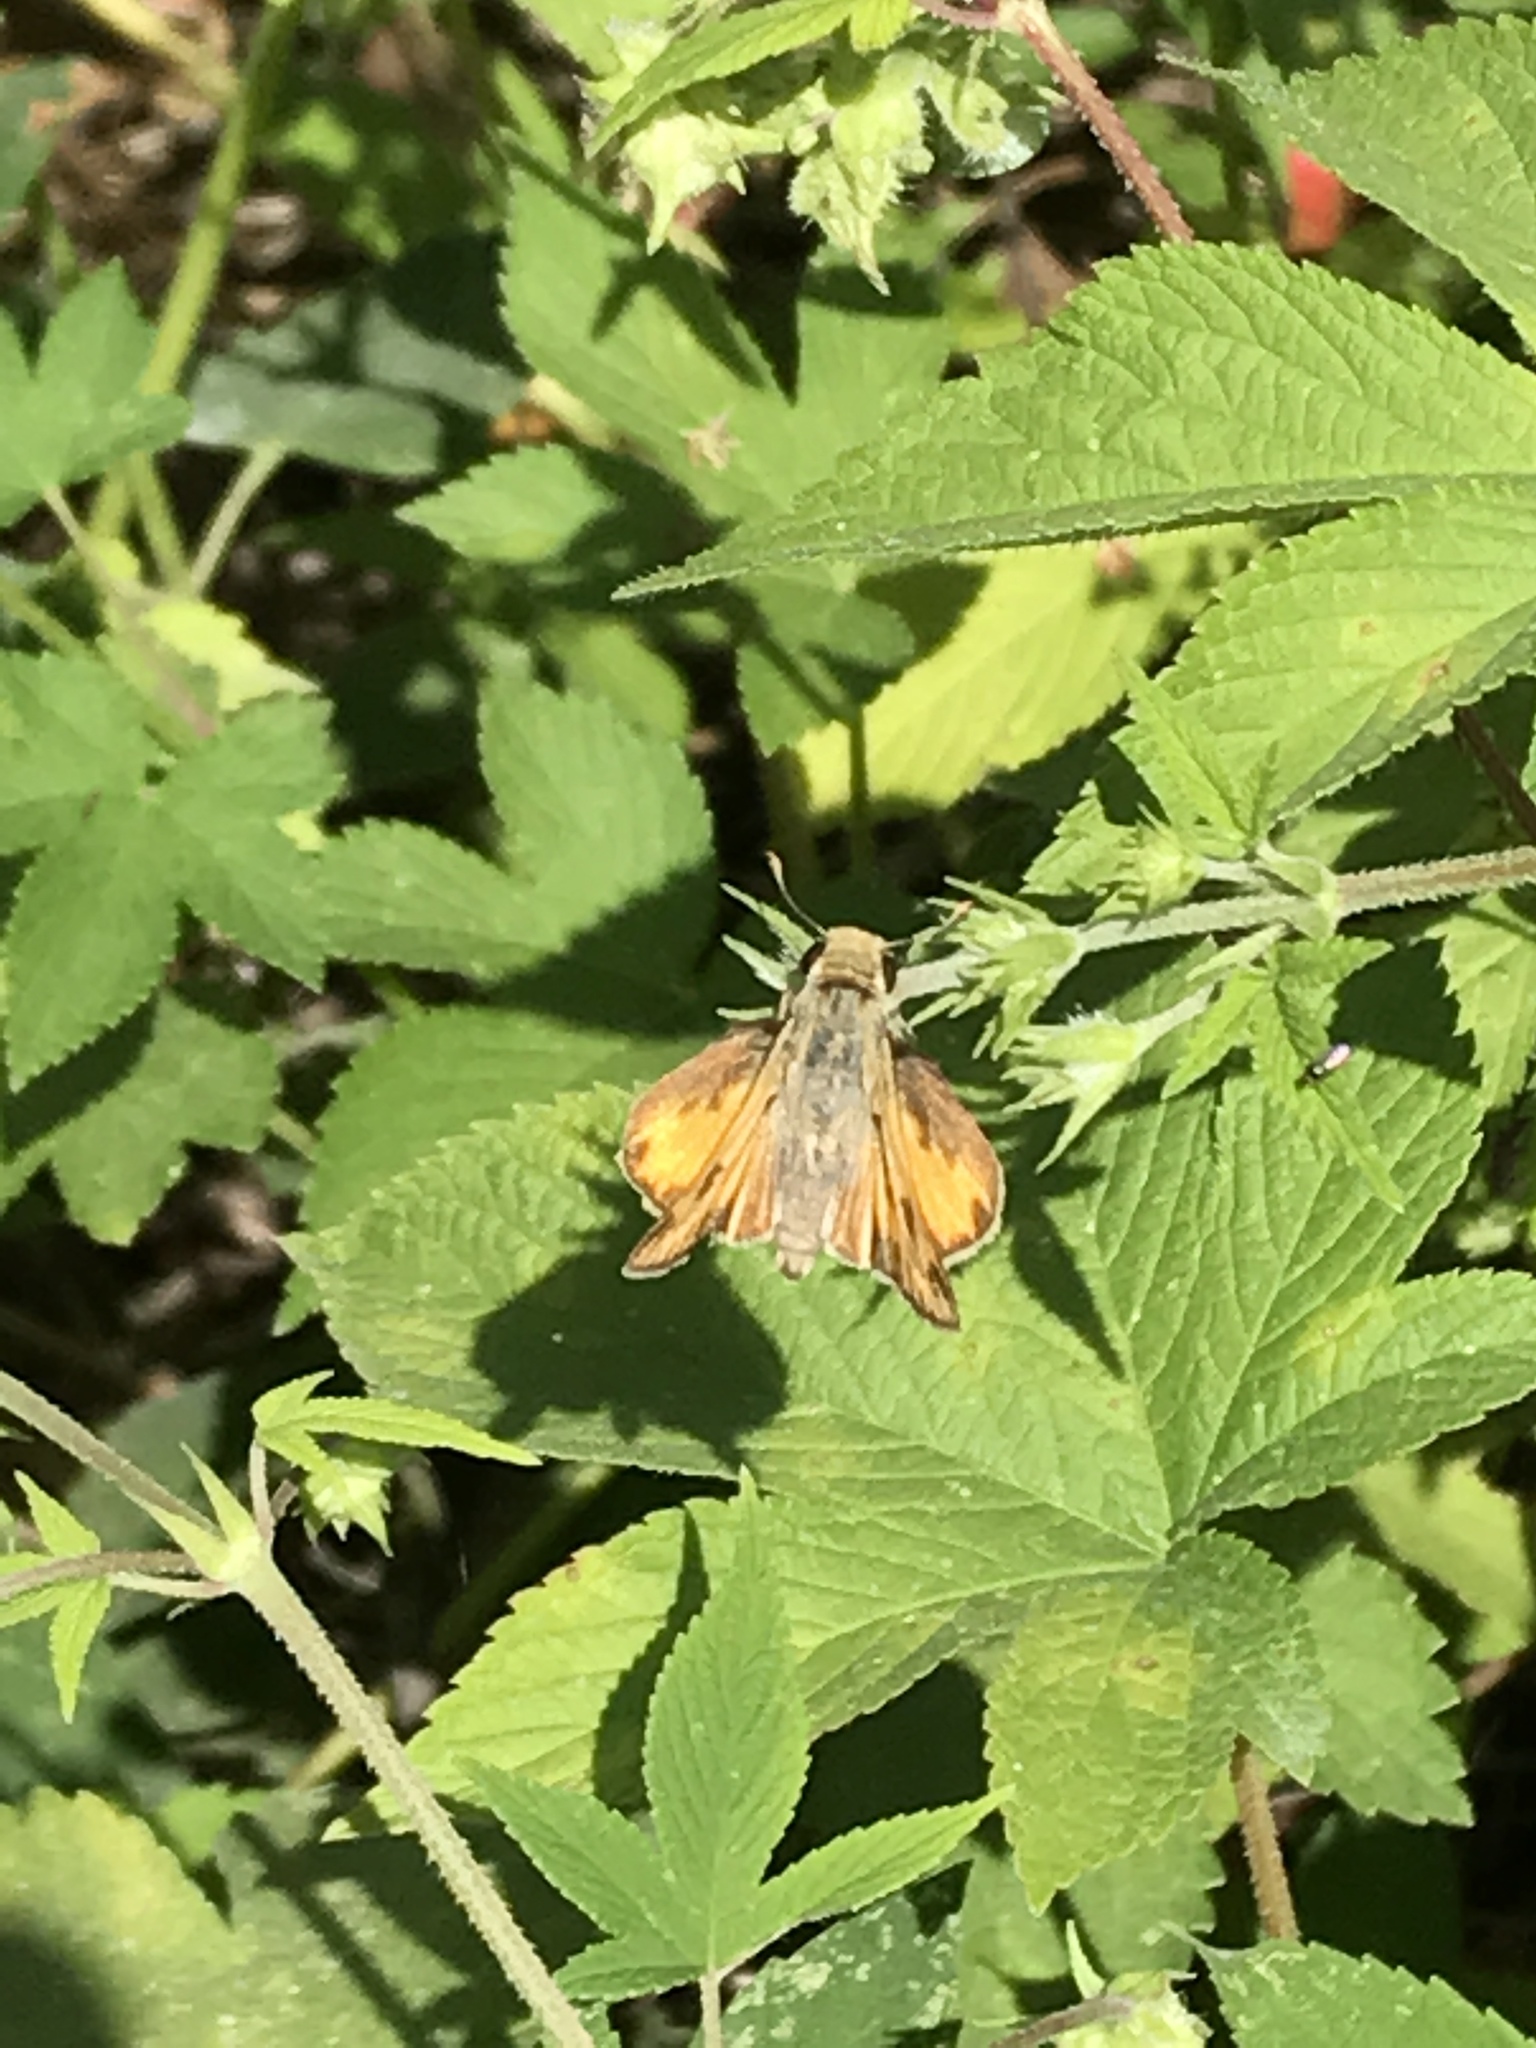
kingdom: Animalia
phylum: Arthropoda
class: Insecta
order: Lepidoptera
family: Hesperiidae
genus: Hylephila
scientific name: Hylephila phyleus
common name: Fiery skipper
